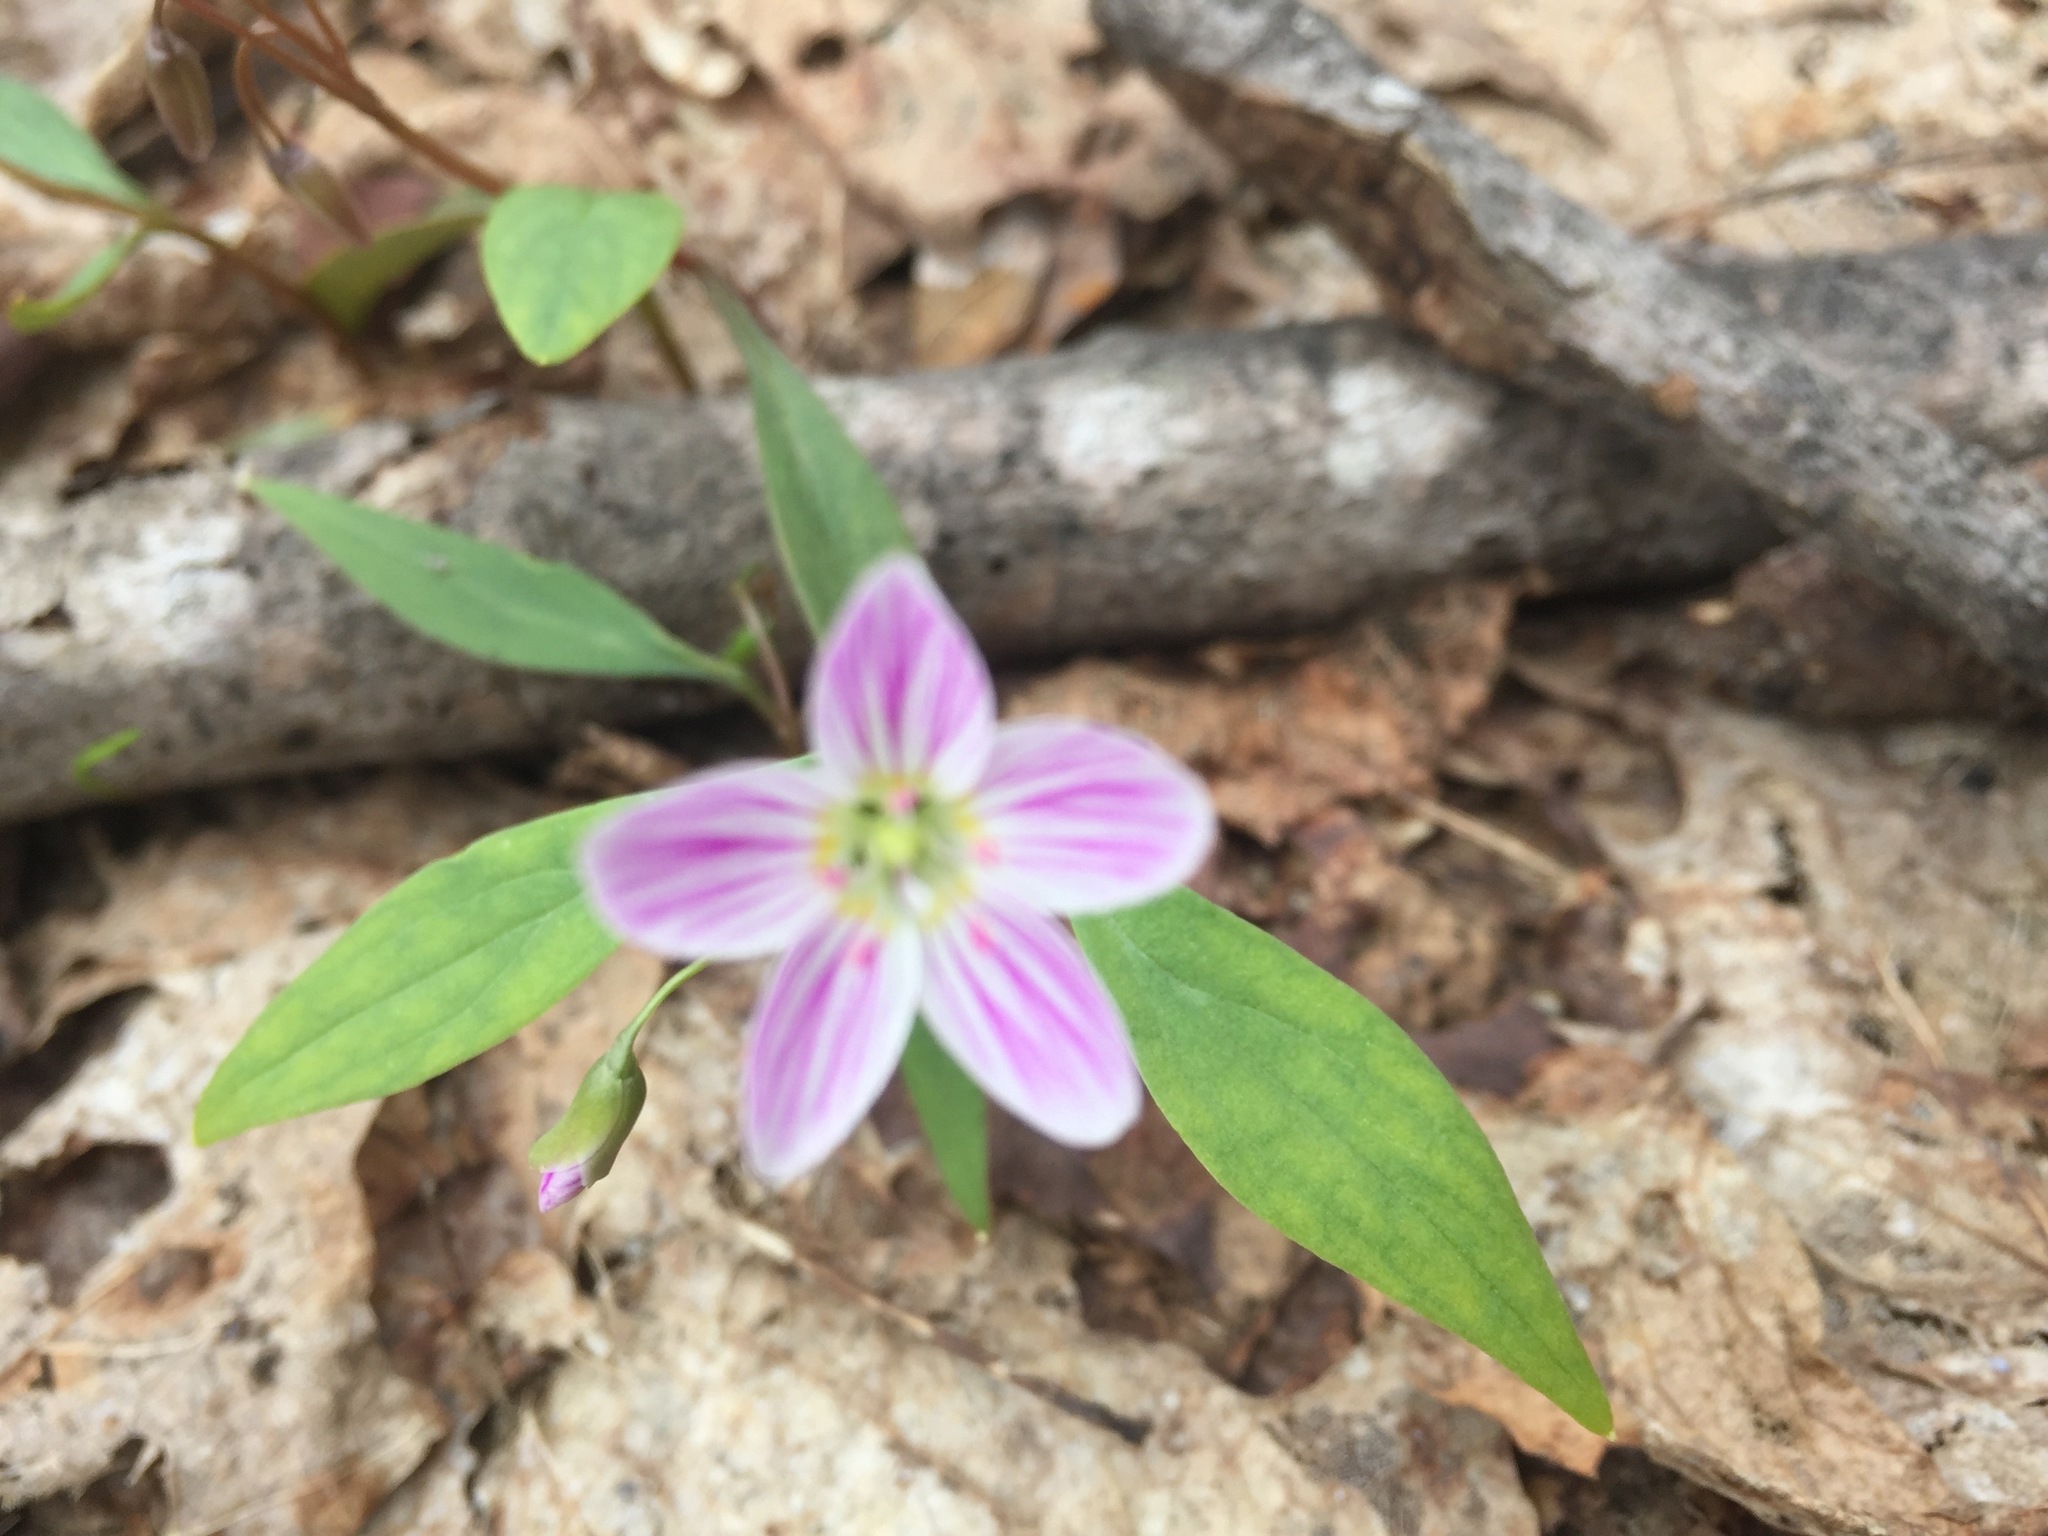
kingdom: Plantae
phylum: Tracheophyta
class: Magnoliopsida
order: Caryophyllales
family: Montiaceae
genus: Claytonia
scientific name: Claytonia caroliniana
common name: Carolina spring beauty
